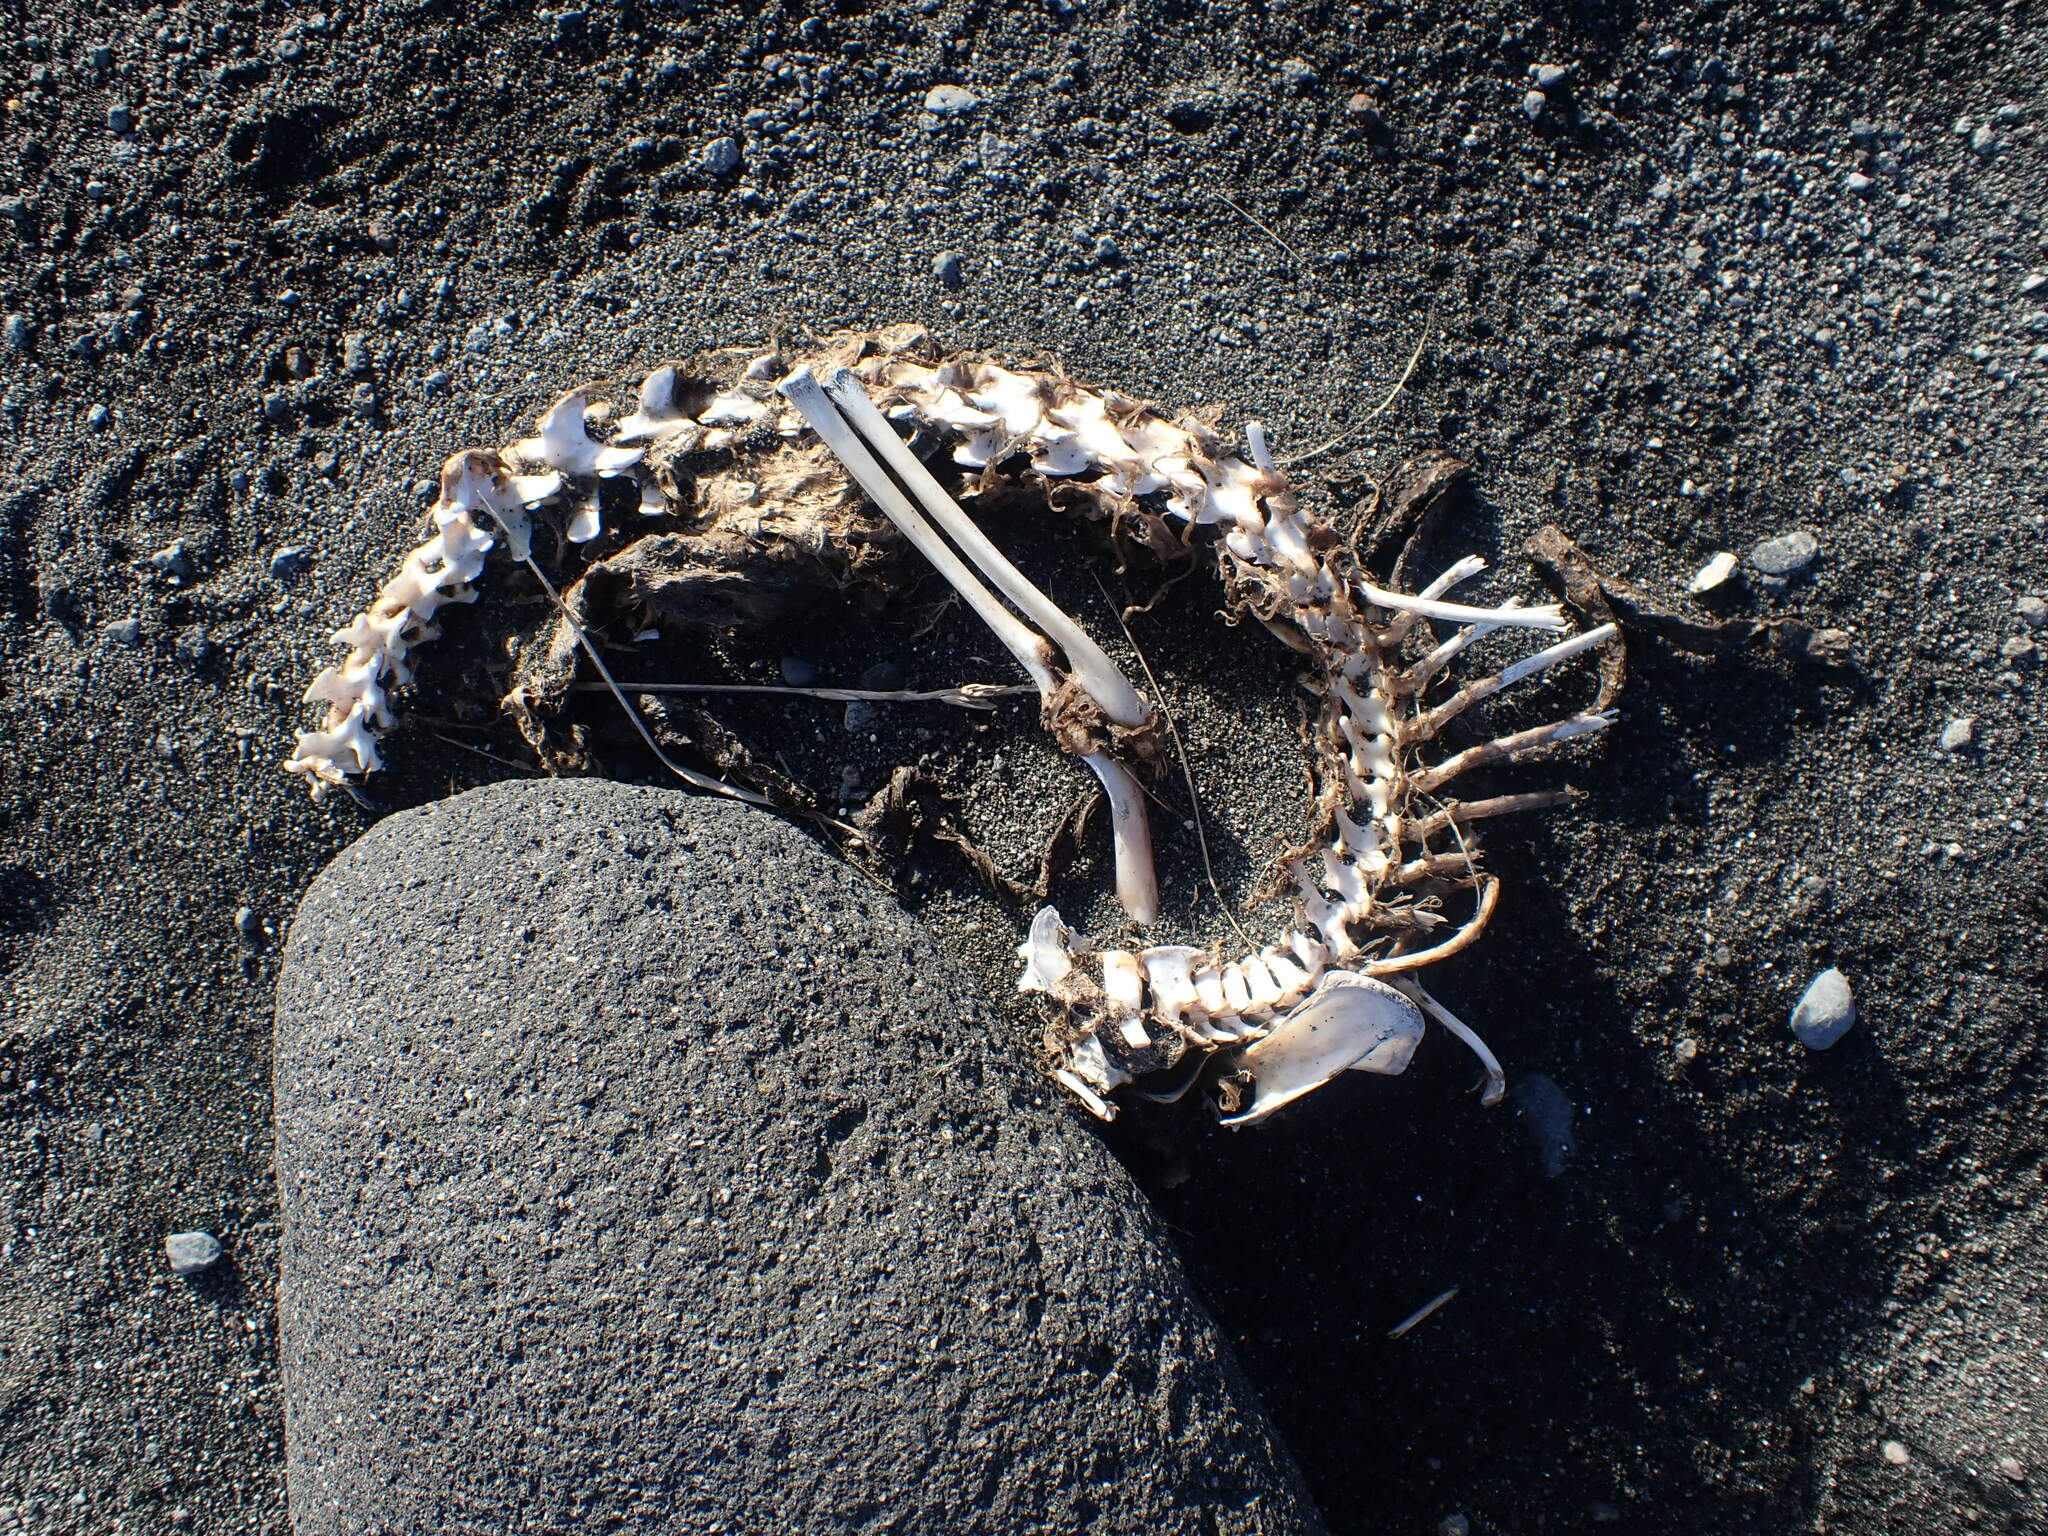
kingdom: Animalia
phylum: Chordata
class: Mammalia
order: Diprotodontia
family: Phalangeridae
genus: Trichosurus
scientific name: Trichosurus vulpecula
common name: Common brushtail
